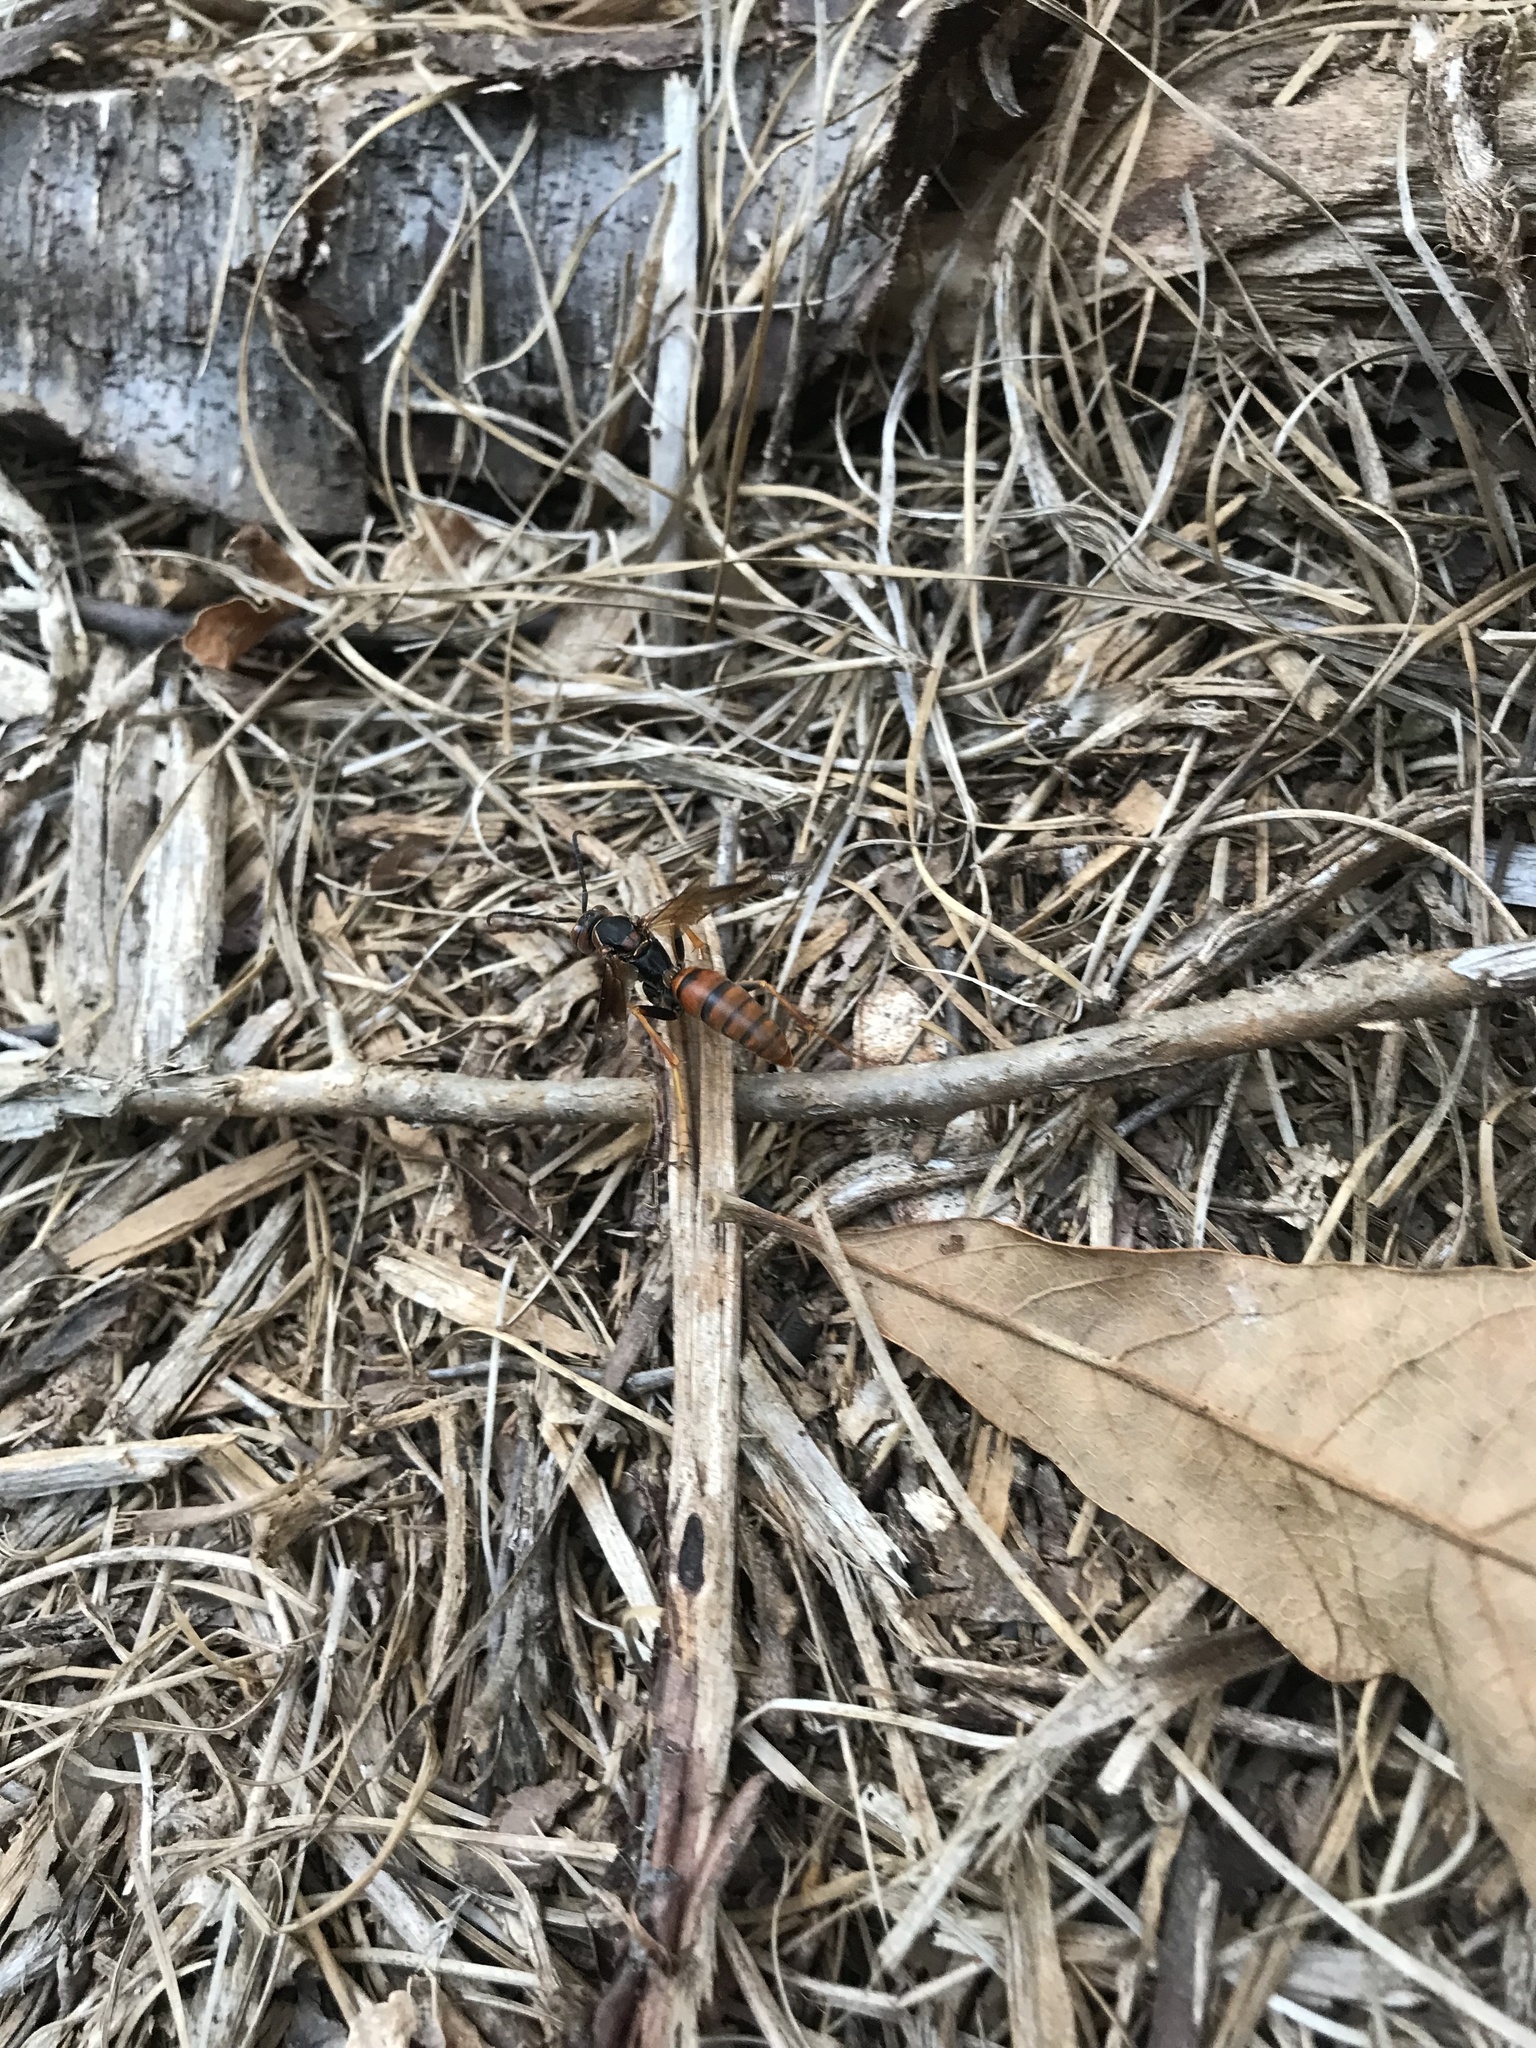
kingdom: Animalia
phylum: Arthropoda
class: Insecta
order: Hymenoptera
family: Eumenidae
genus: Polistes
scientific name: Polistes fuscatus
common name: Dark paper wasp
